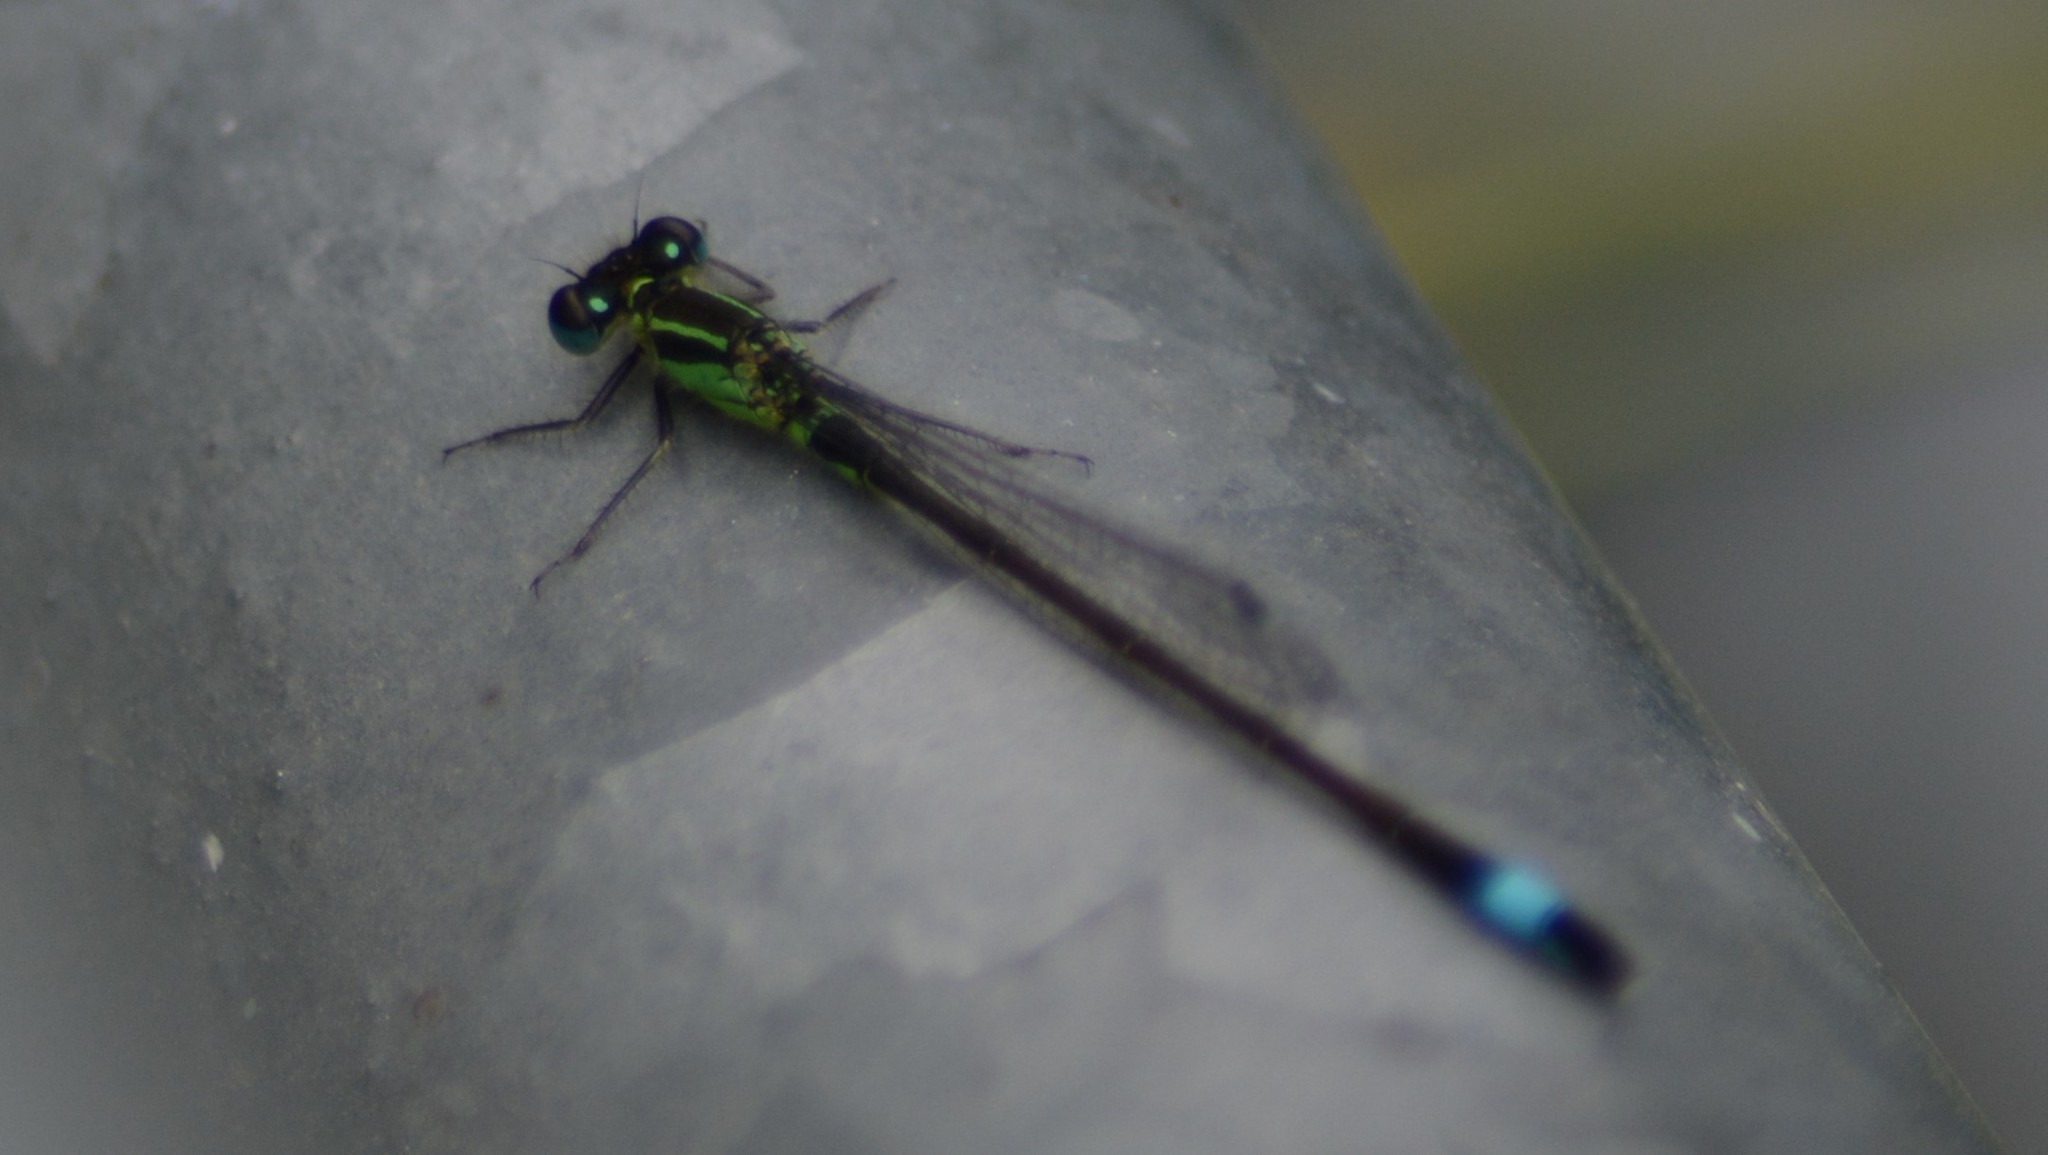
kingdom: Animalia
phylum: Arthropoda
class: Insecta
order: Odonata
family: Coenagrionidae
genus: Ischnura
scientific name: Ischnura elegans
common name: Blue-tailed damselfly
